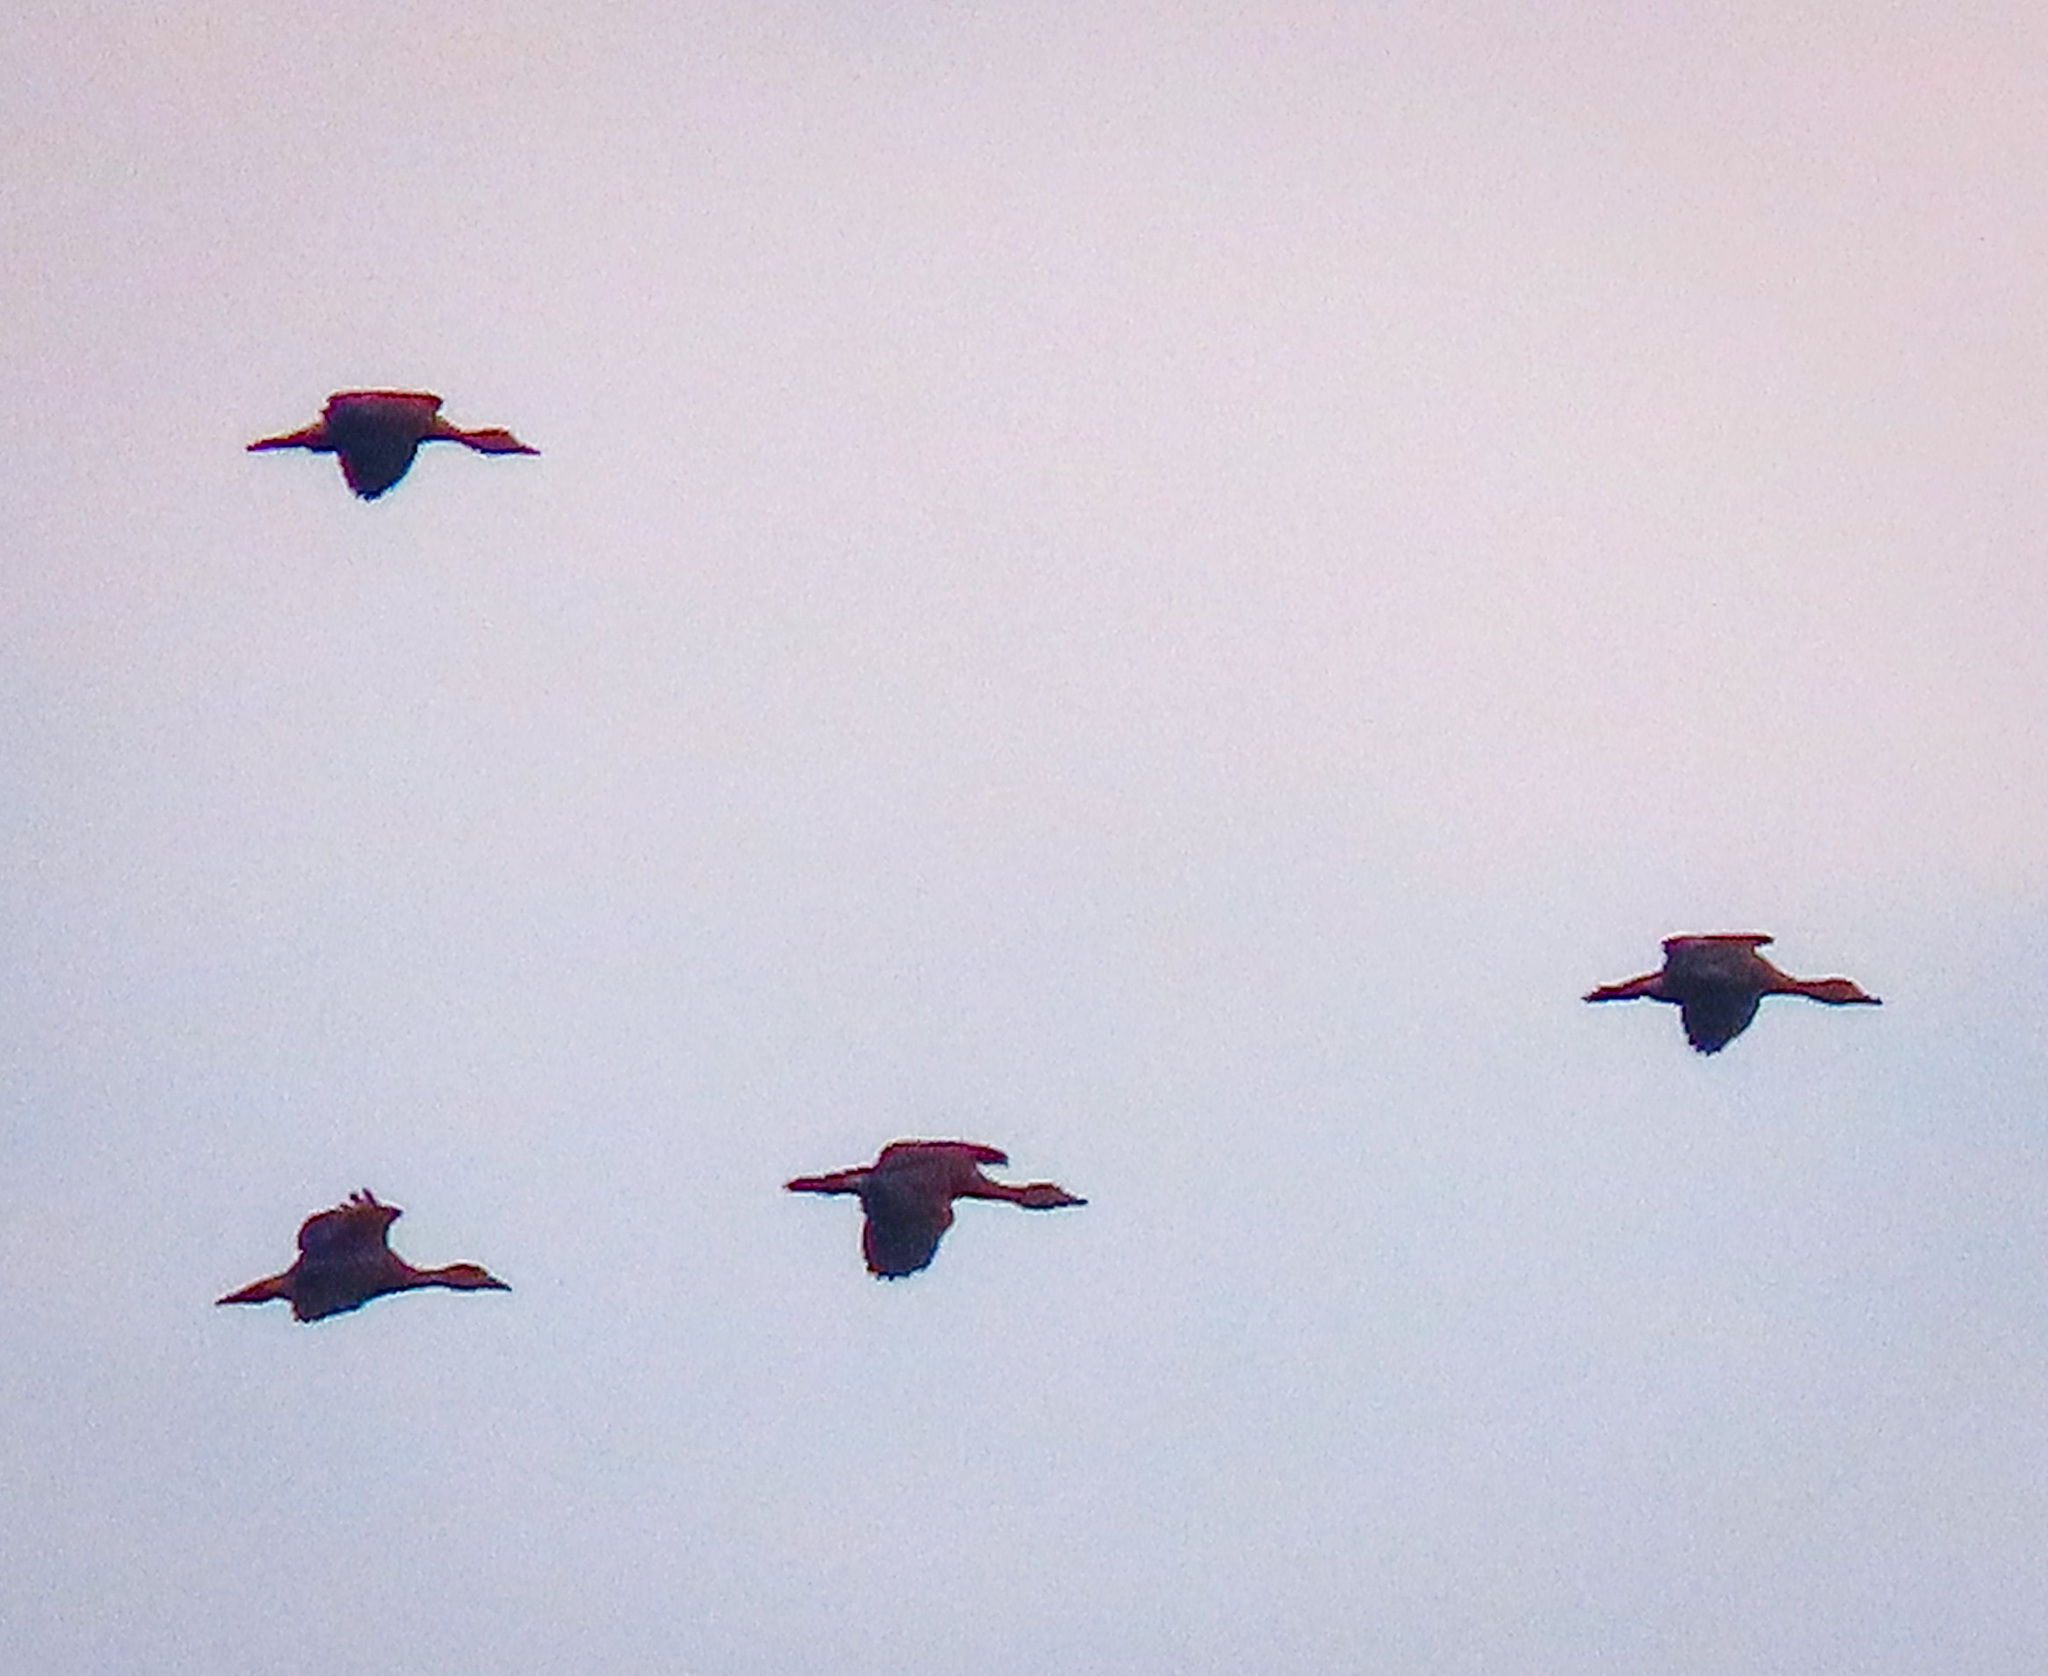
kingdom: Animalia
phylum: Chordata
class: Aves
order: Anseriformes
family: Anatidae
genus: Dendrocygna
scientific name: Dendrocygna javanica
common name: Lesser whistling-duck
